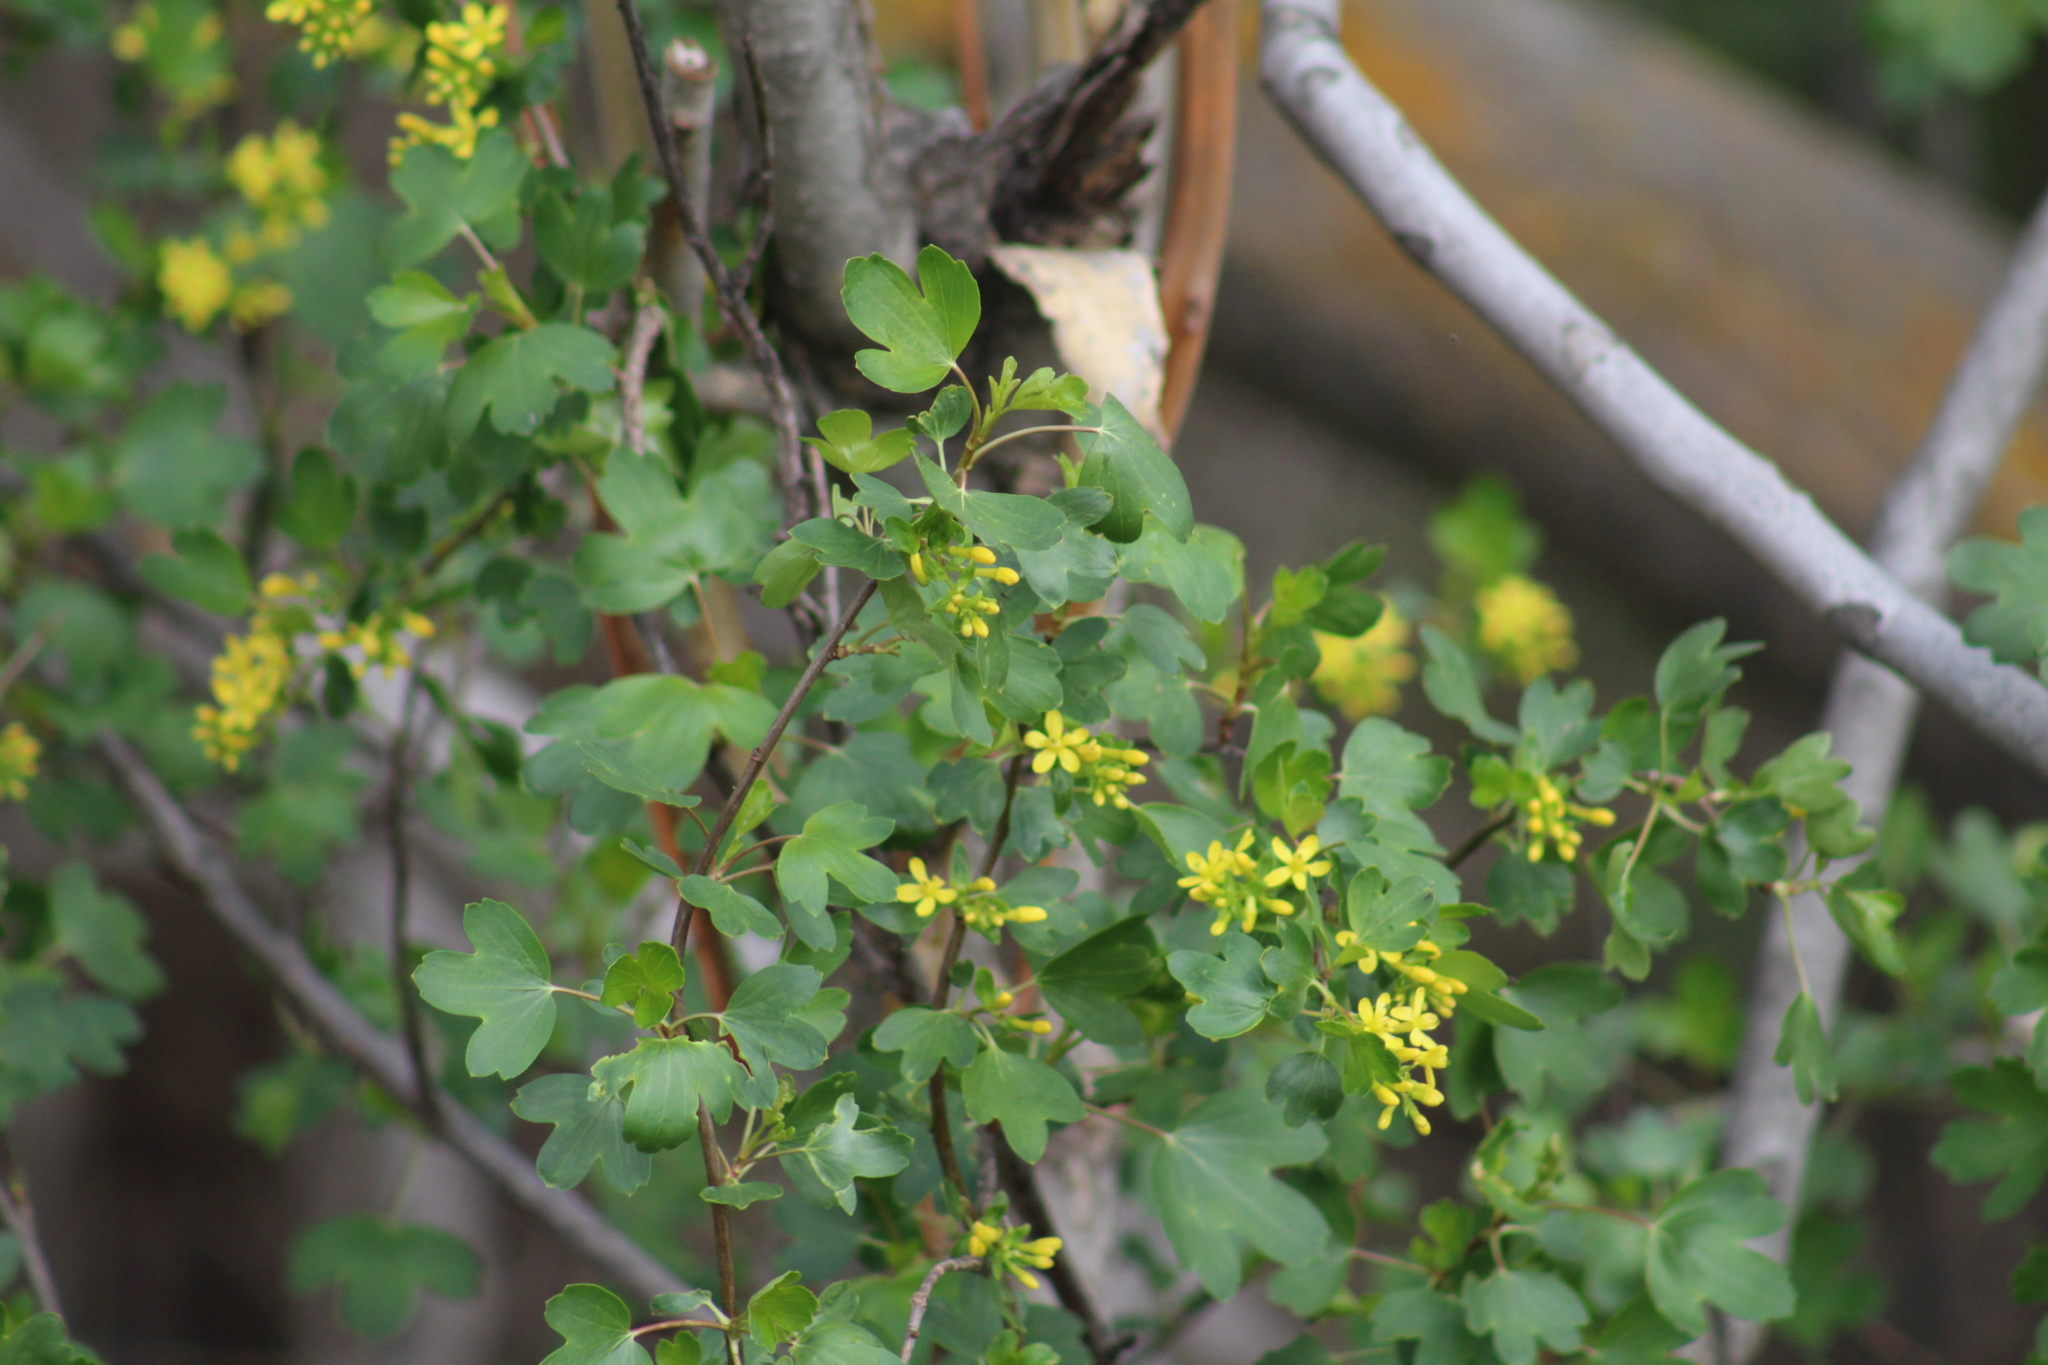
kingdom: Plantae
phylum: Tracheophyta
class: Magnoliopsida
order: Saxifragales
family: Grossulariaceae
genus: Ribes
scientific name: Ribes aureum
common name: Golden currant
